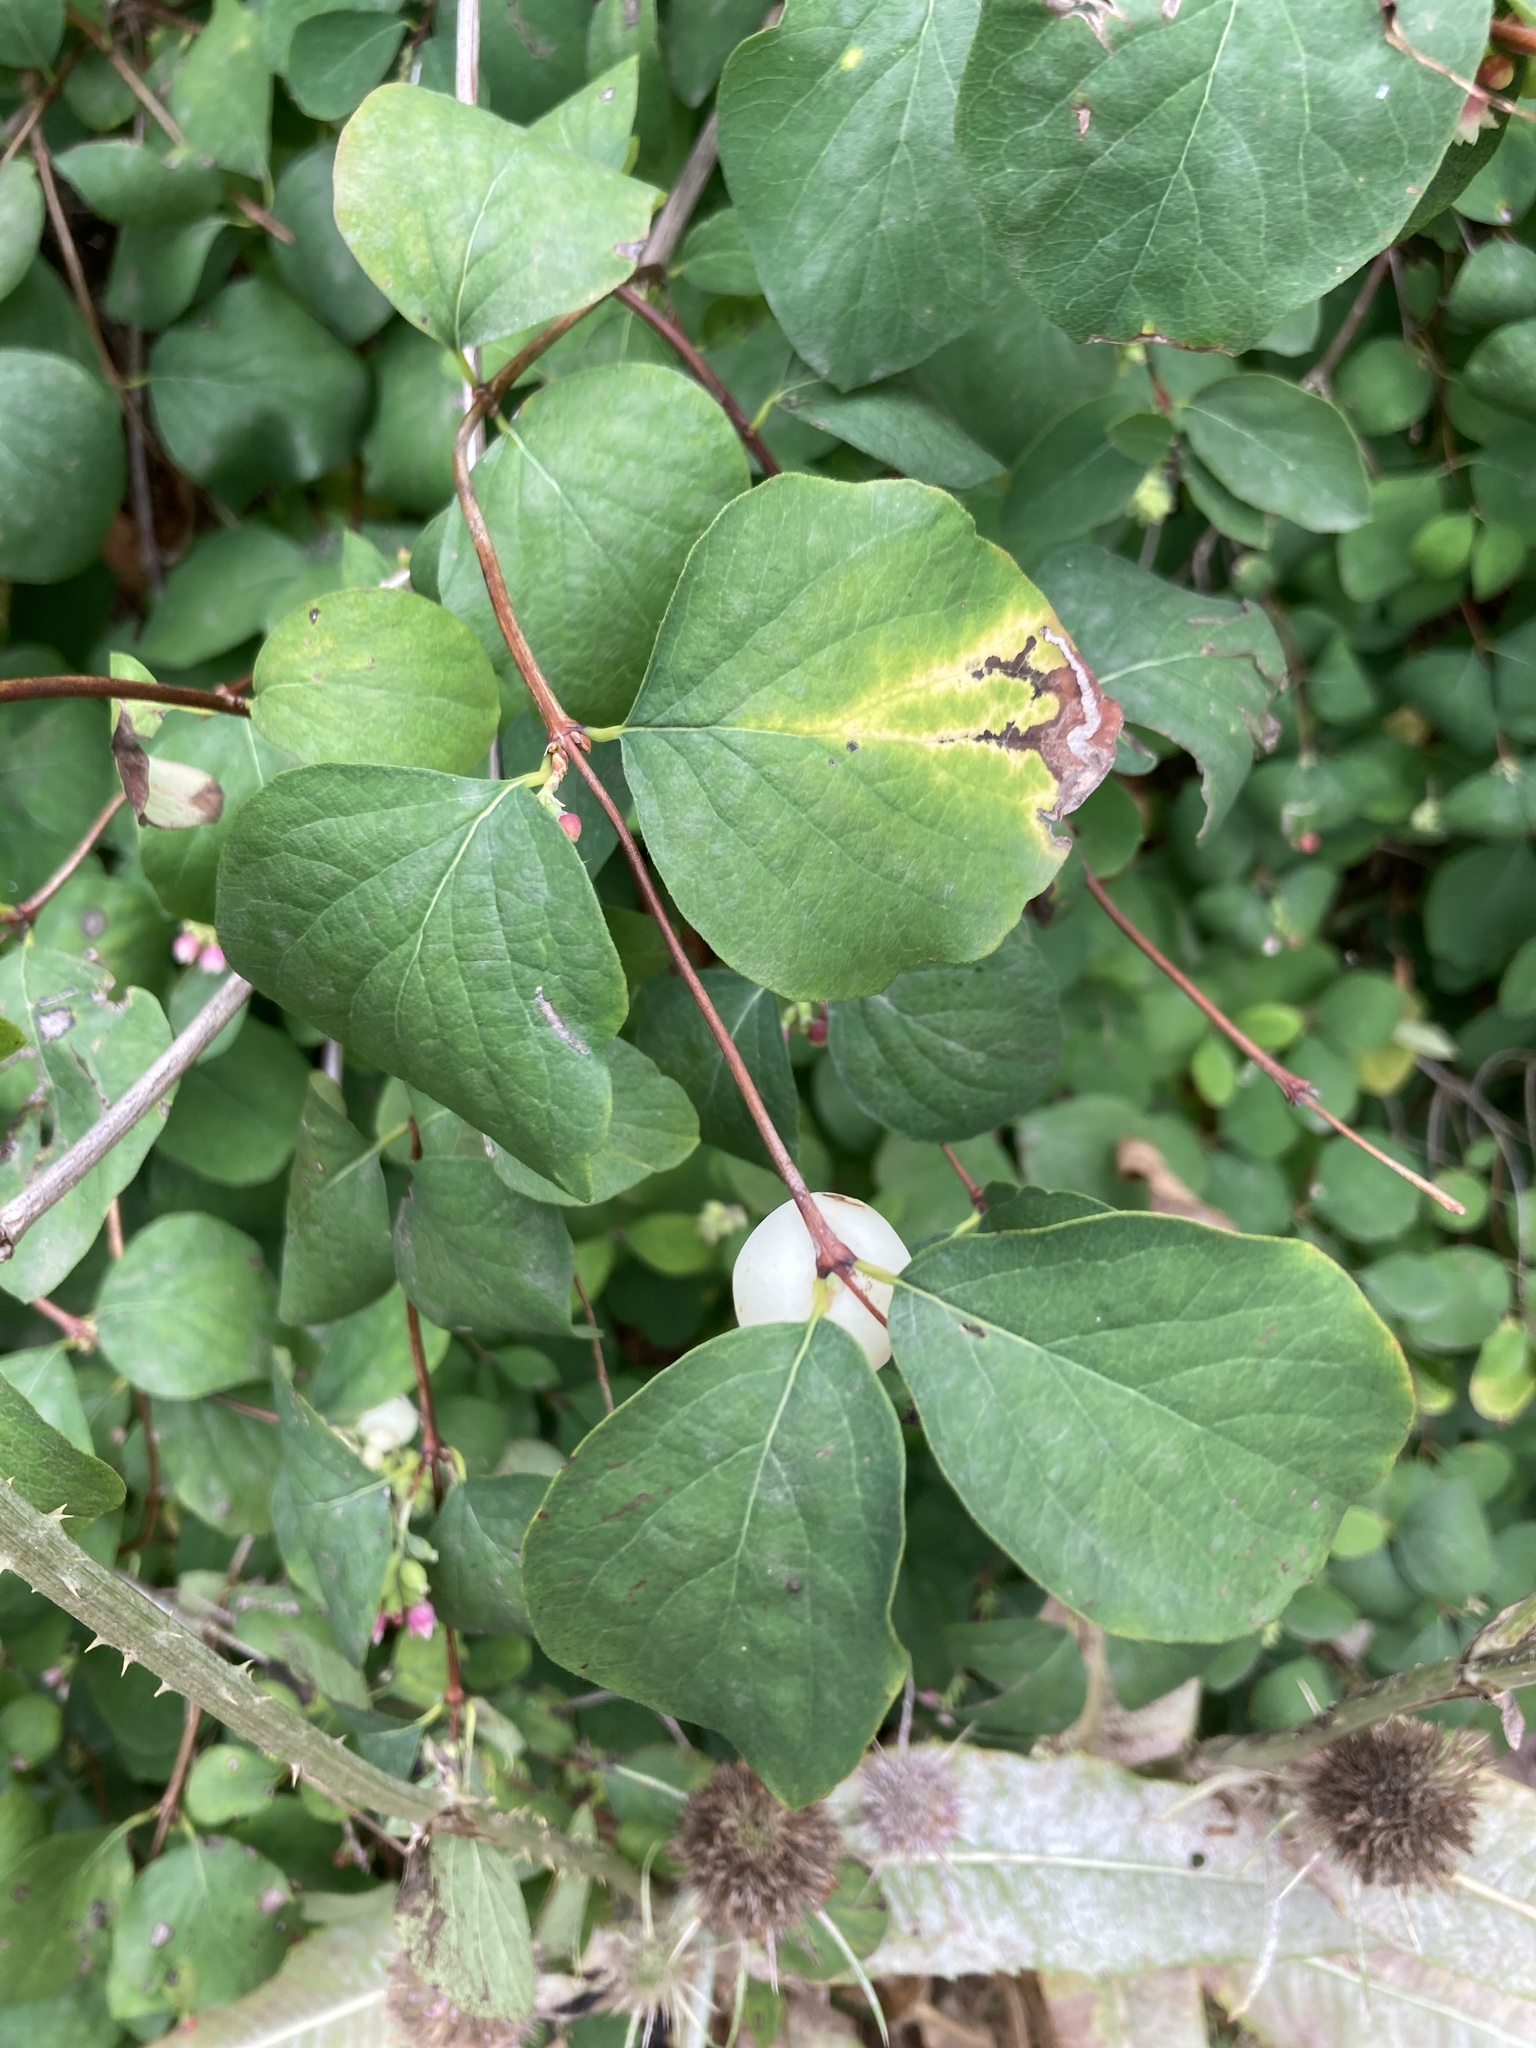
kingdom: Plantae
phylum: Tracheophyta
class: Magnoliopsida
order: Dipsacales
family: Caprifoliaceae
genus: Symphoricarpos
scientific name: Symphoricarpos albus
